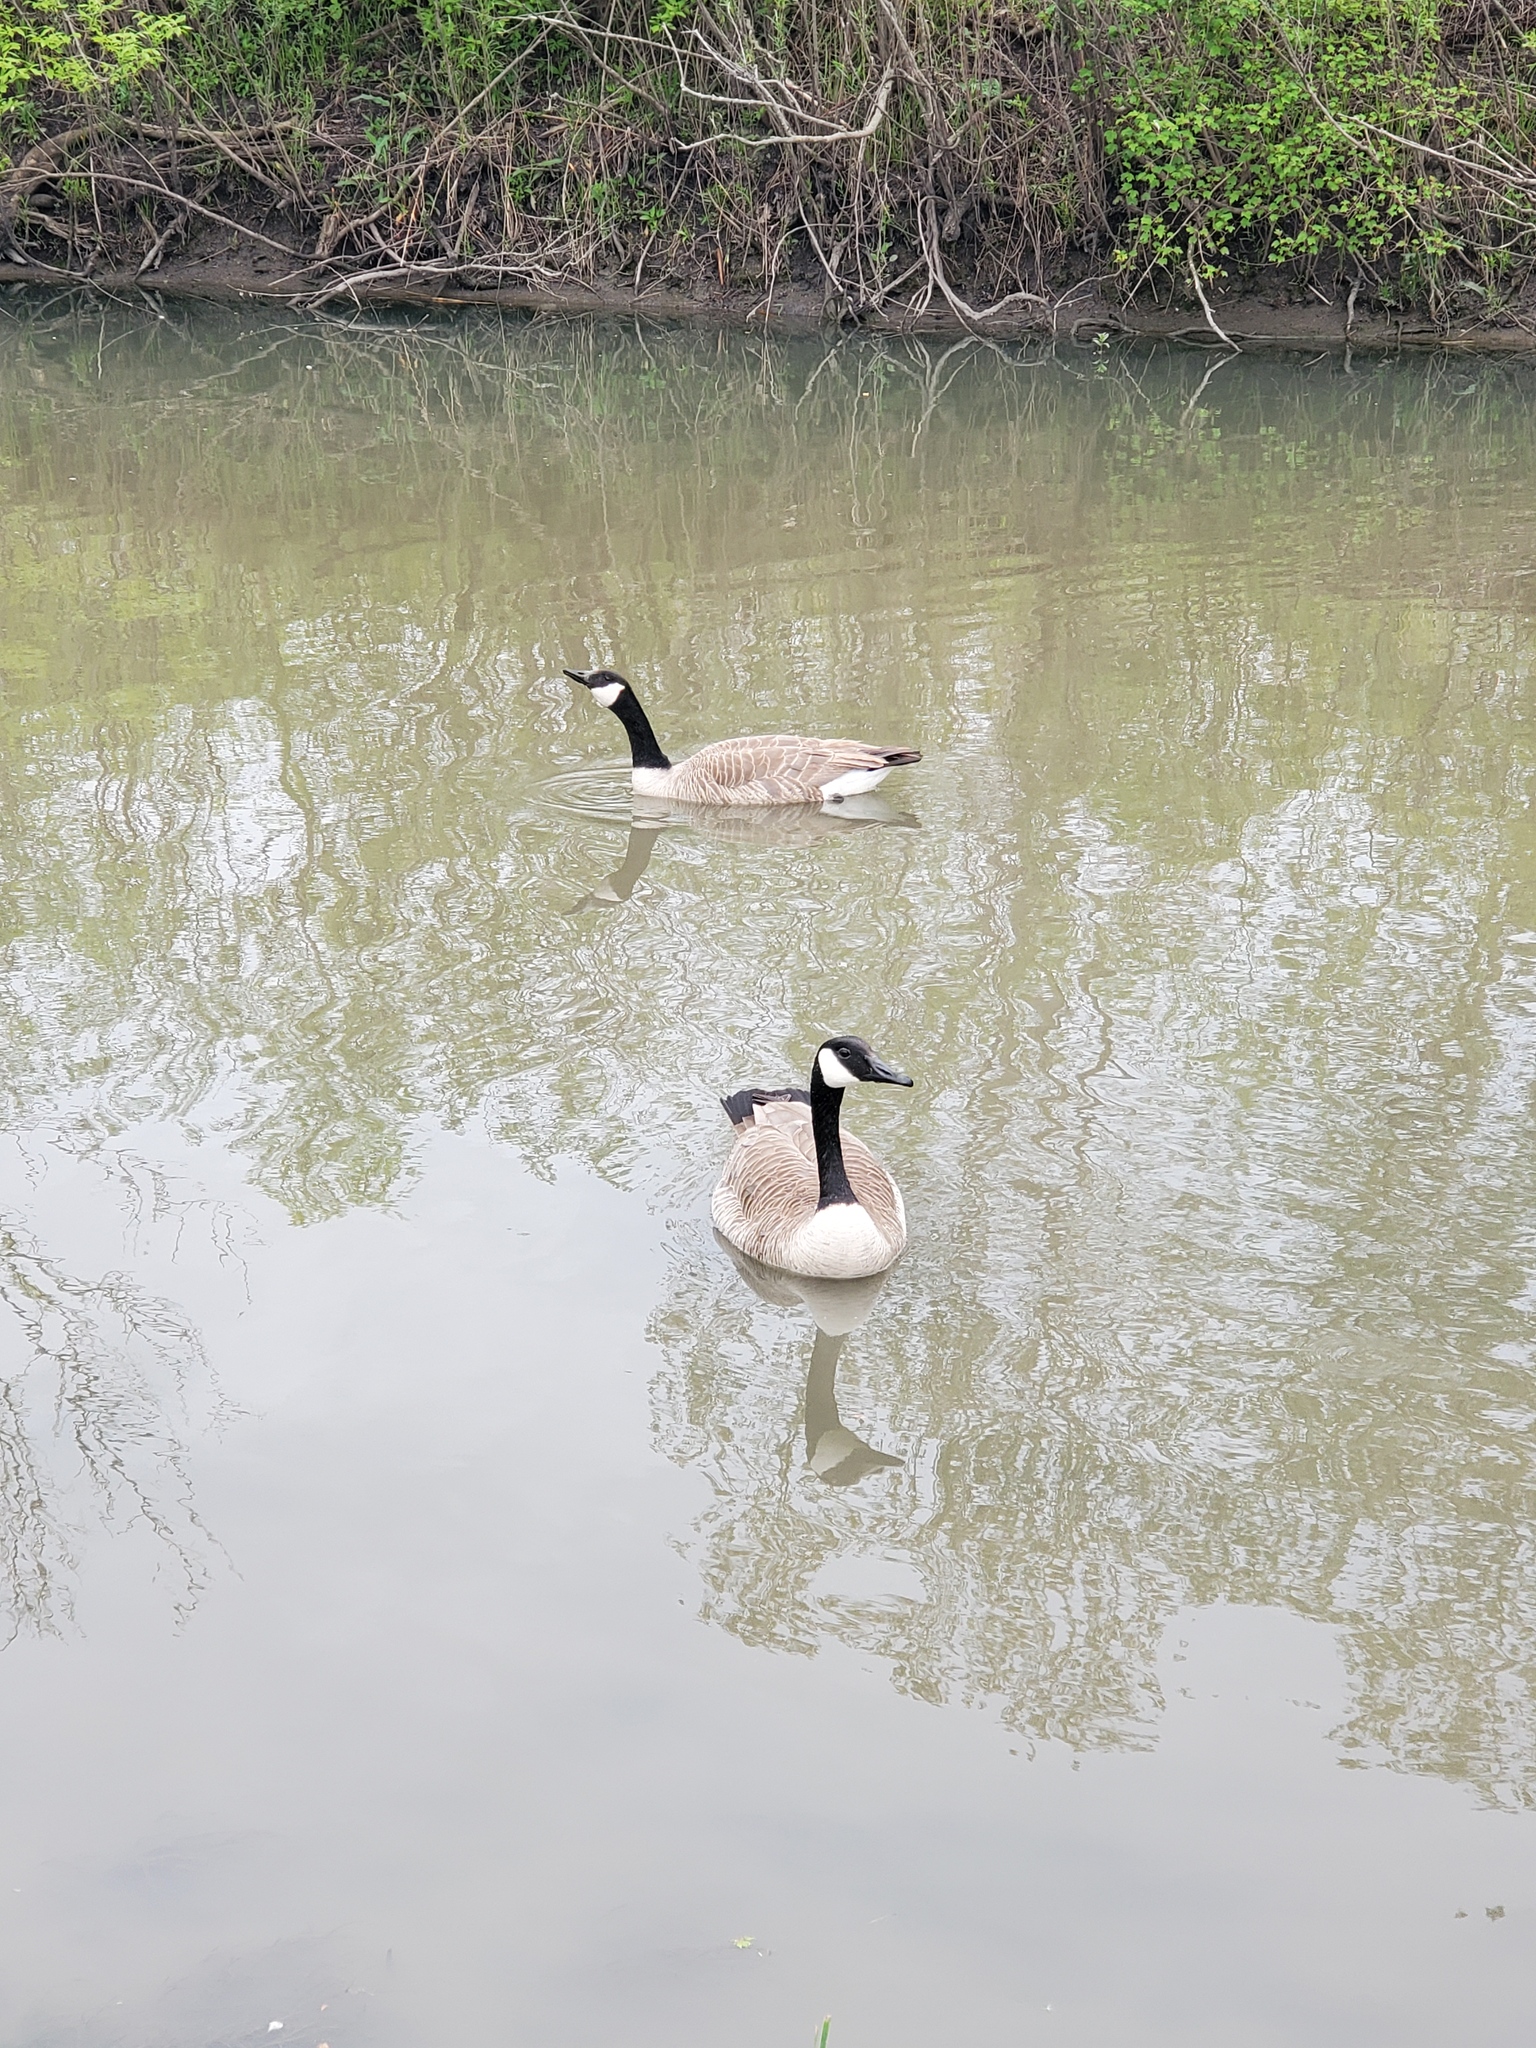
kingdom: Animalia
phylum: Chordata
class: Aves
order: Anseriformes
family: Anatidae
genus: Branta
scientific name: Branta canadensis
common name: Canada goose
